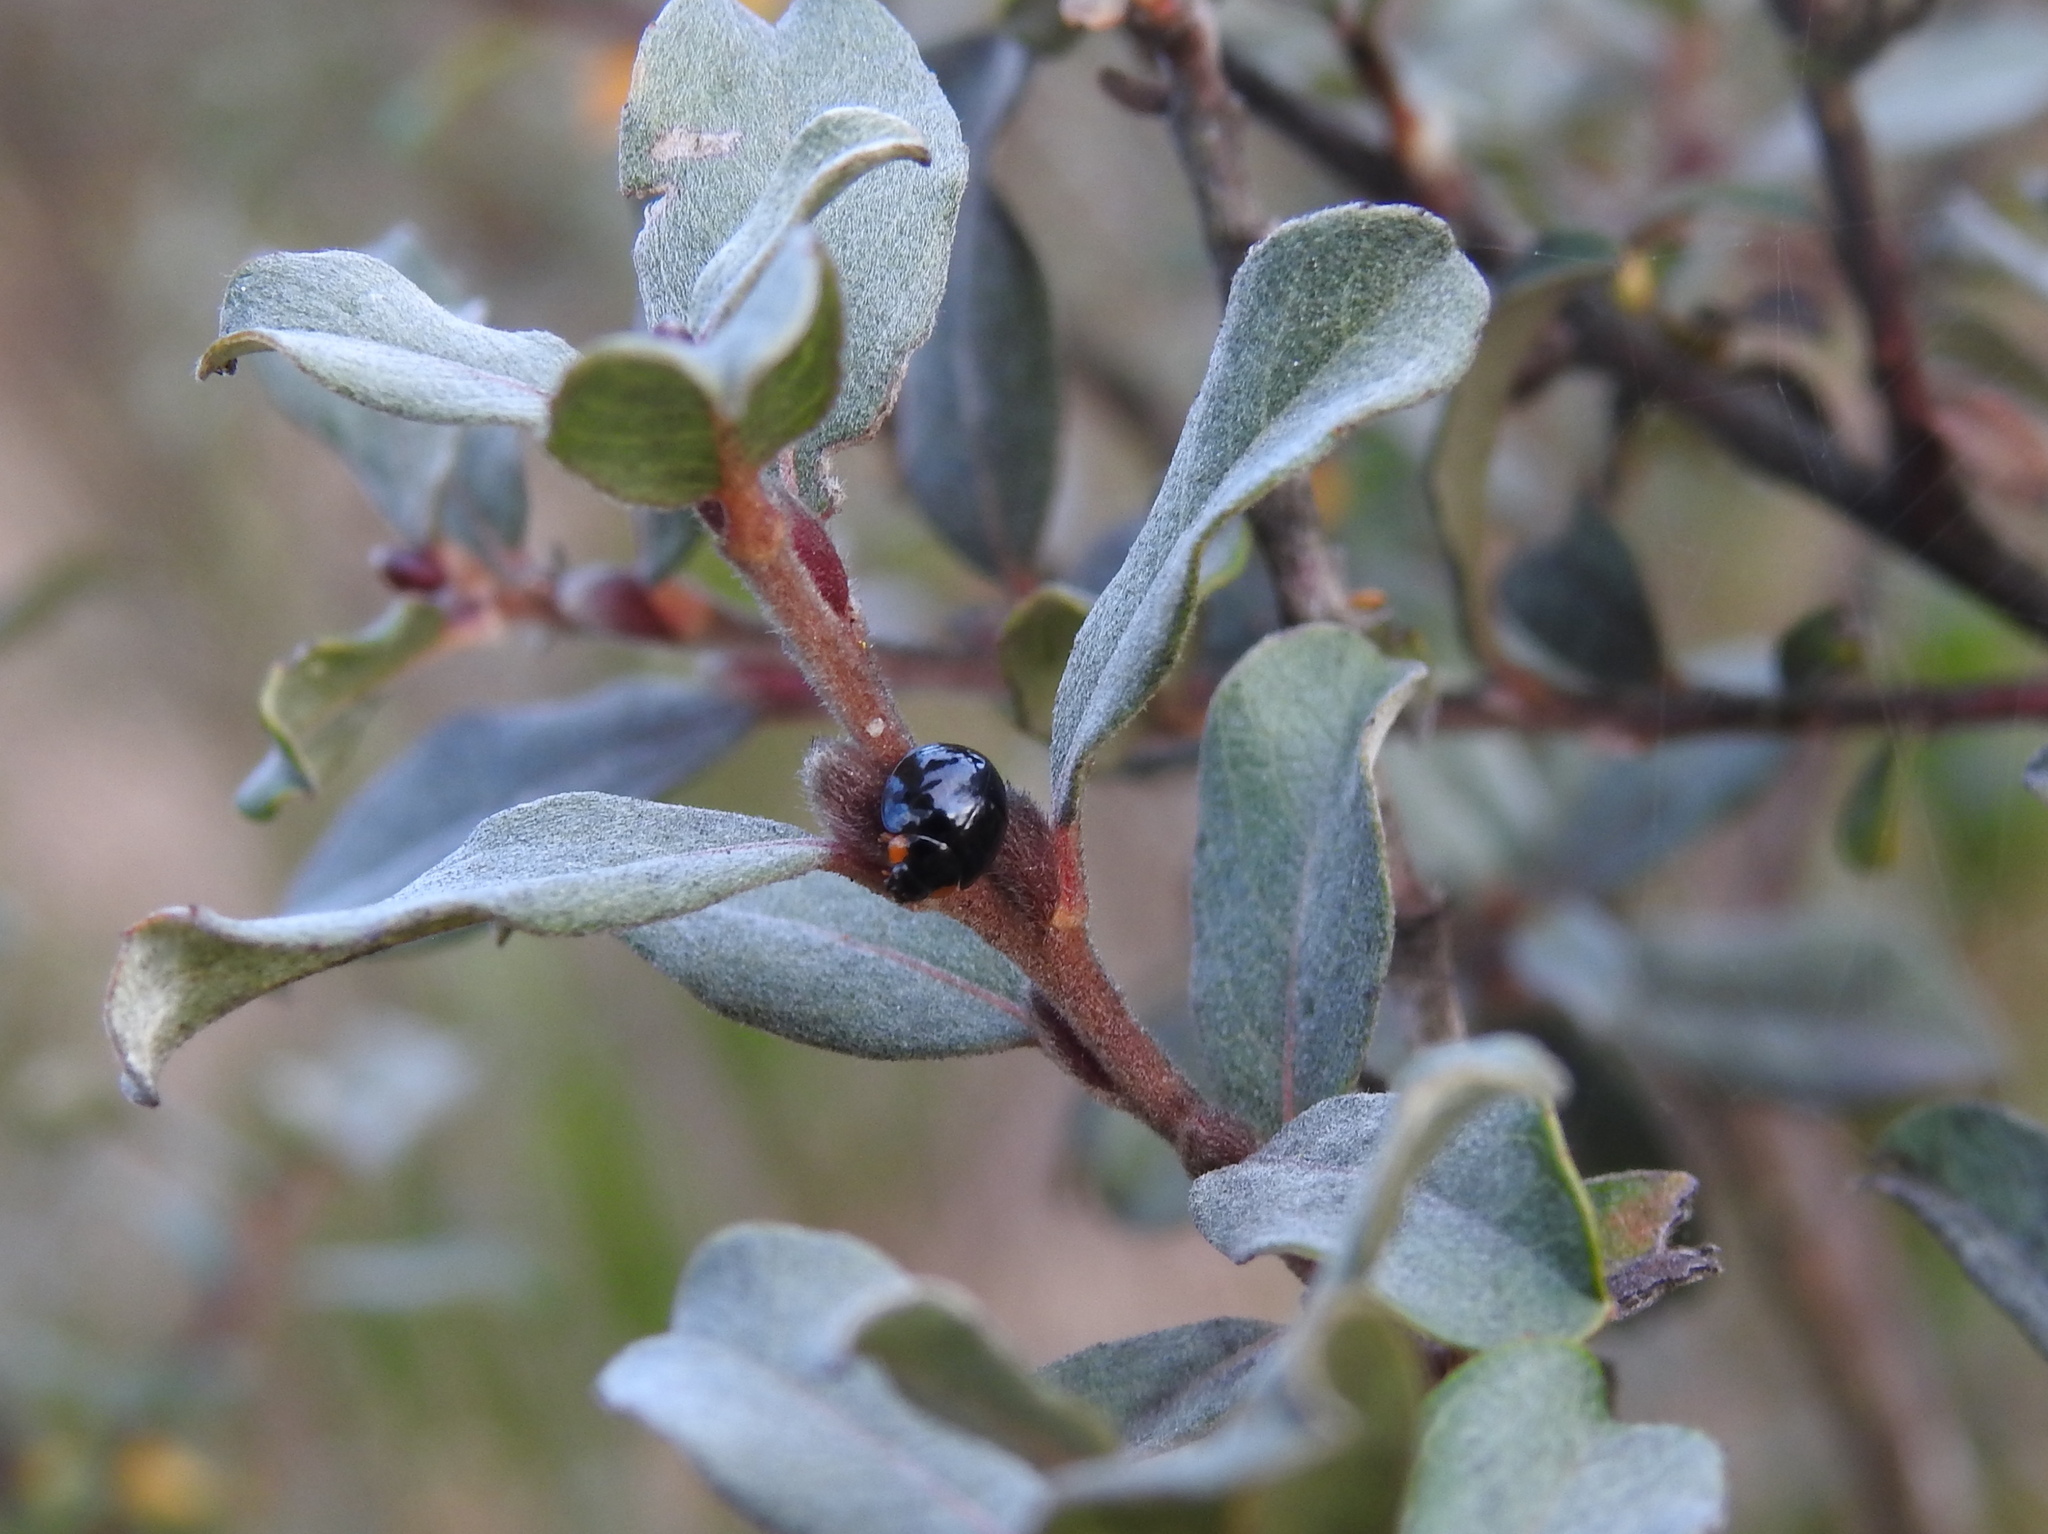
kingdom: Animalia
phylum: Arthropoda
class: Insecta
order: Coleoptera
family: Coccinellidae
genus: Parexochomus
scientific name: Parexochomus nigromaculatus
